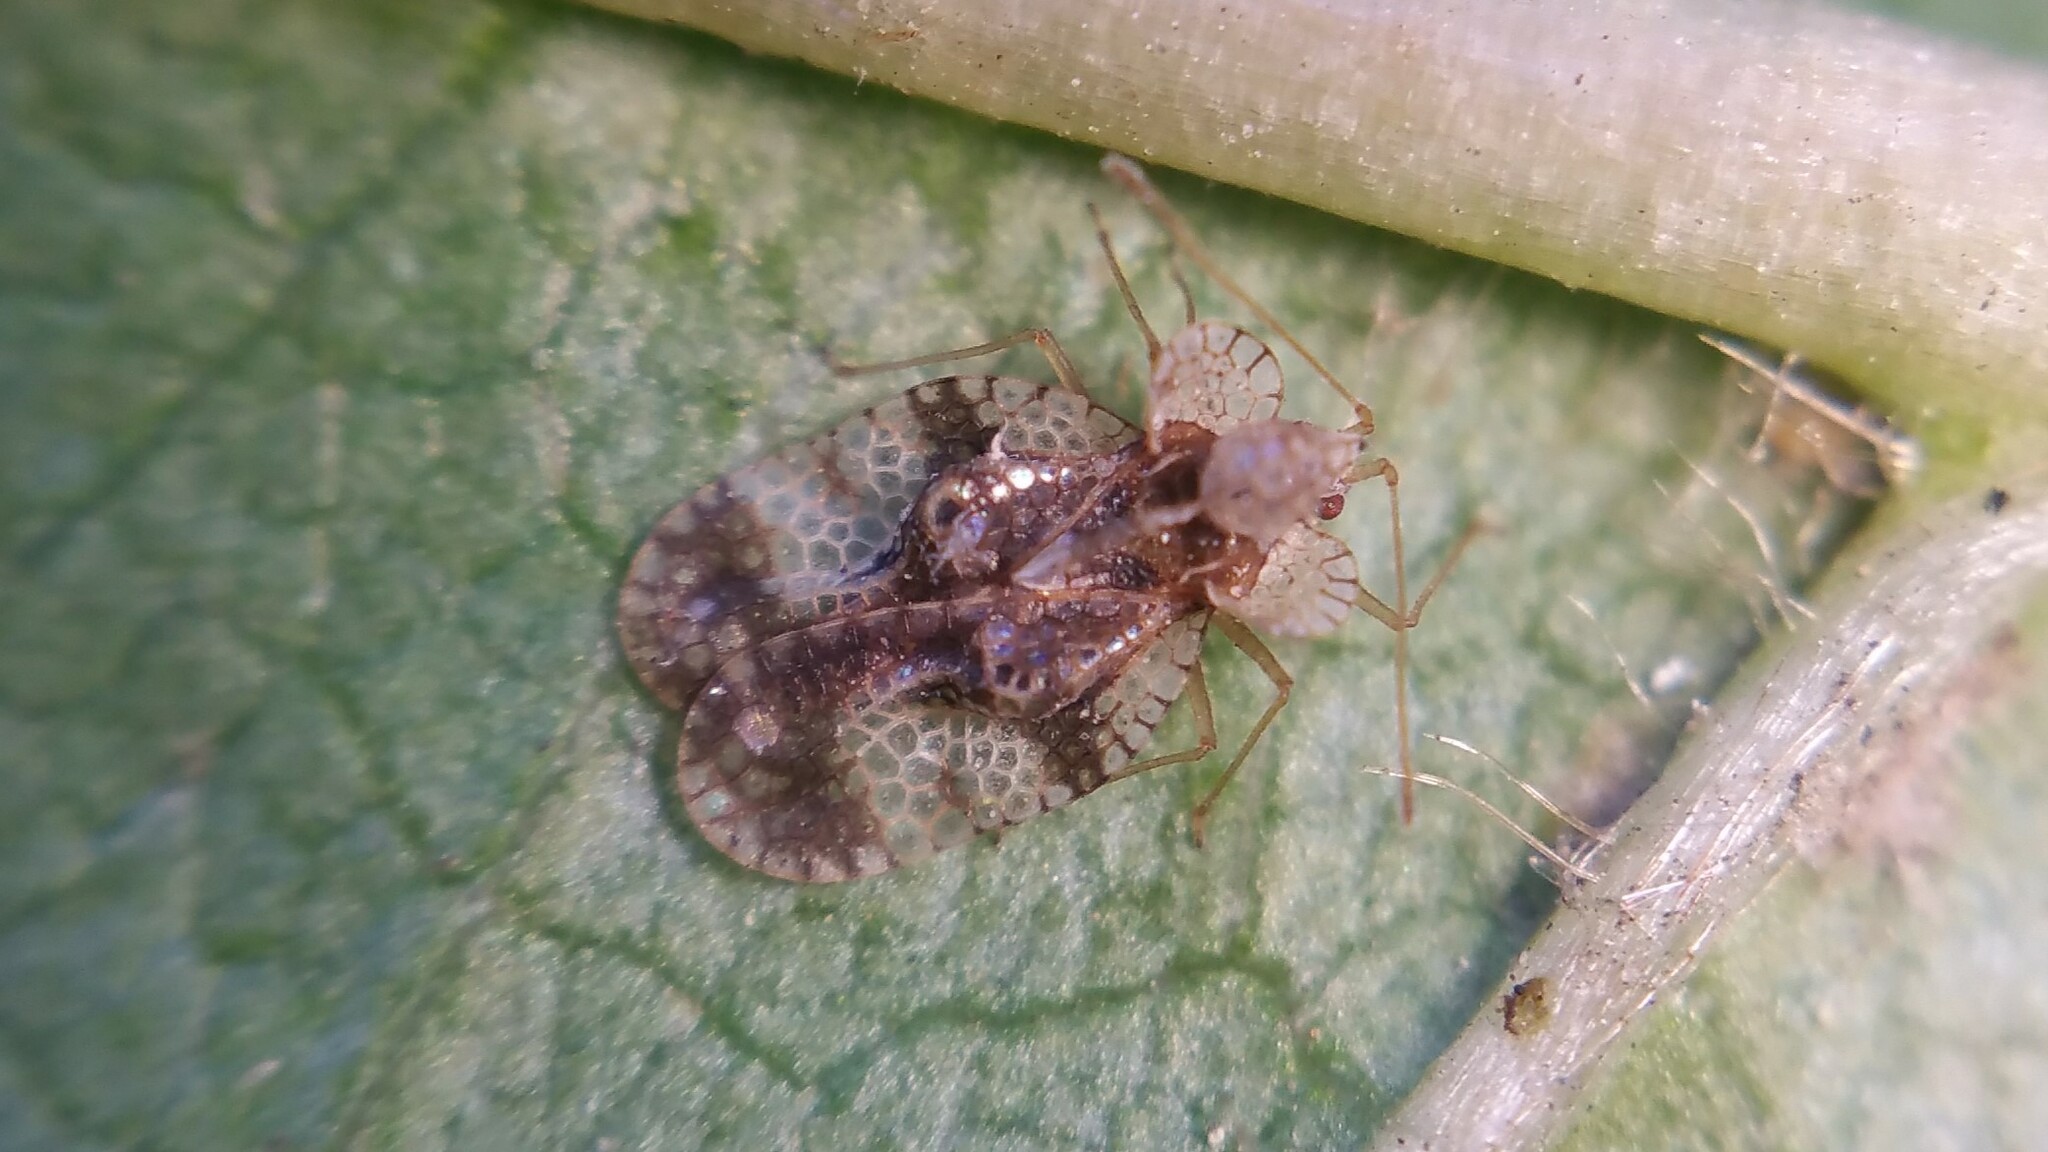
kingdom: Animalia
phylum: Arthropoda
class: Insecta
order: Hemiptera
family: Tingidae
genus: Stephanitis
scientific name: Stephanitis pyri
